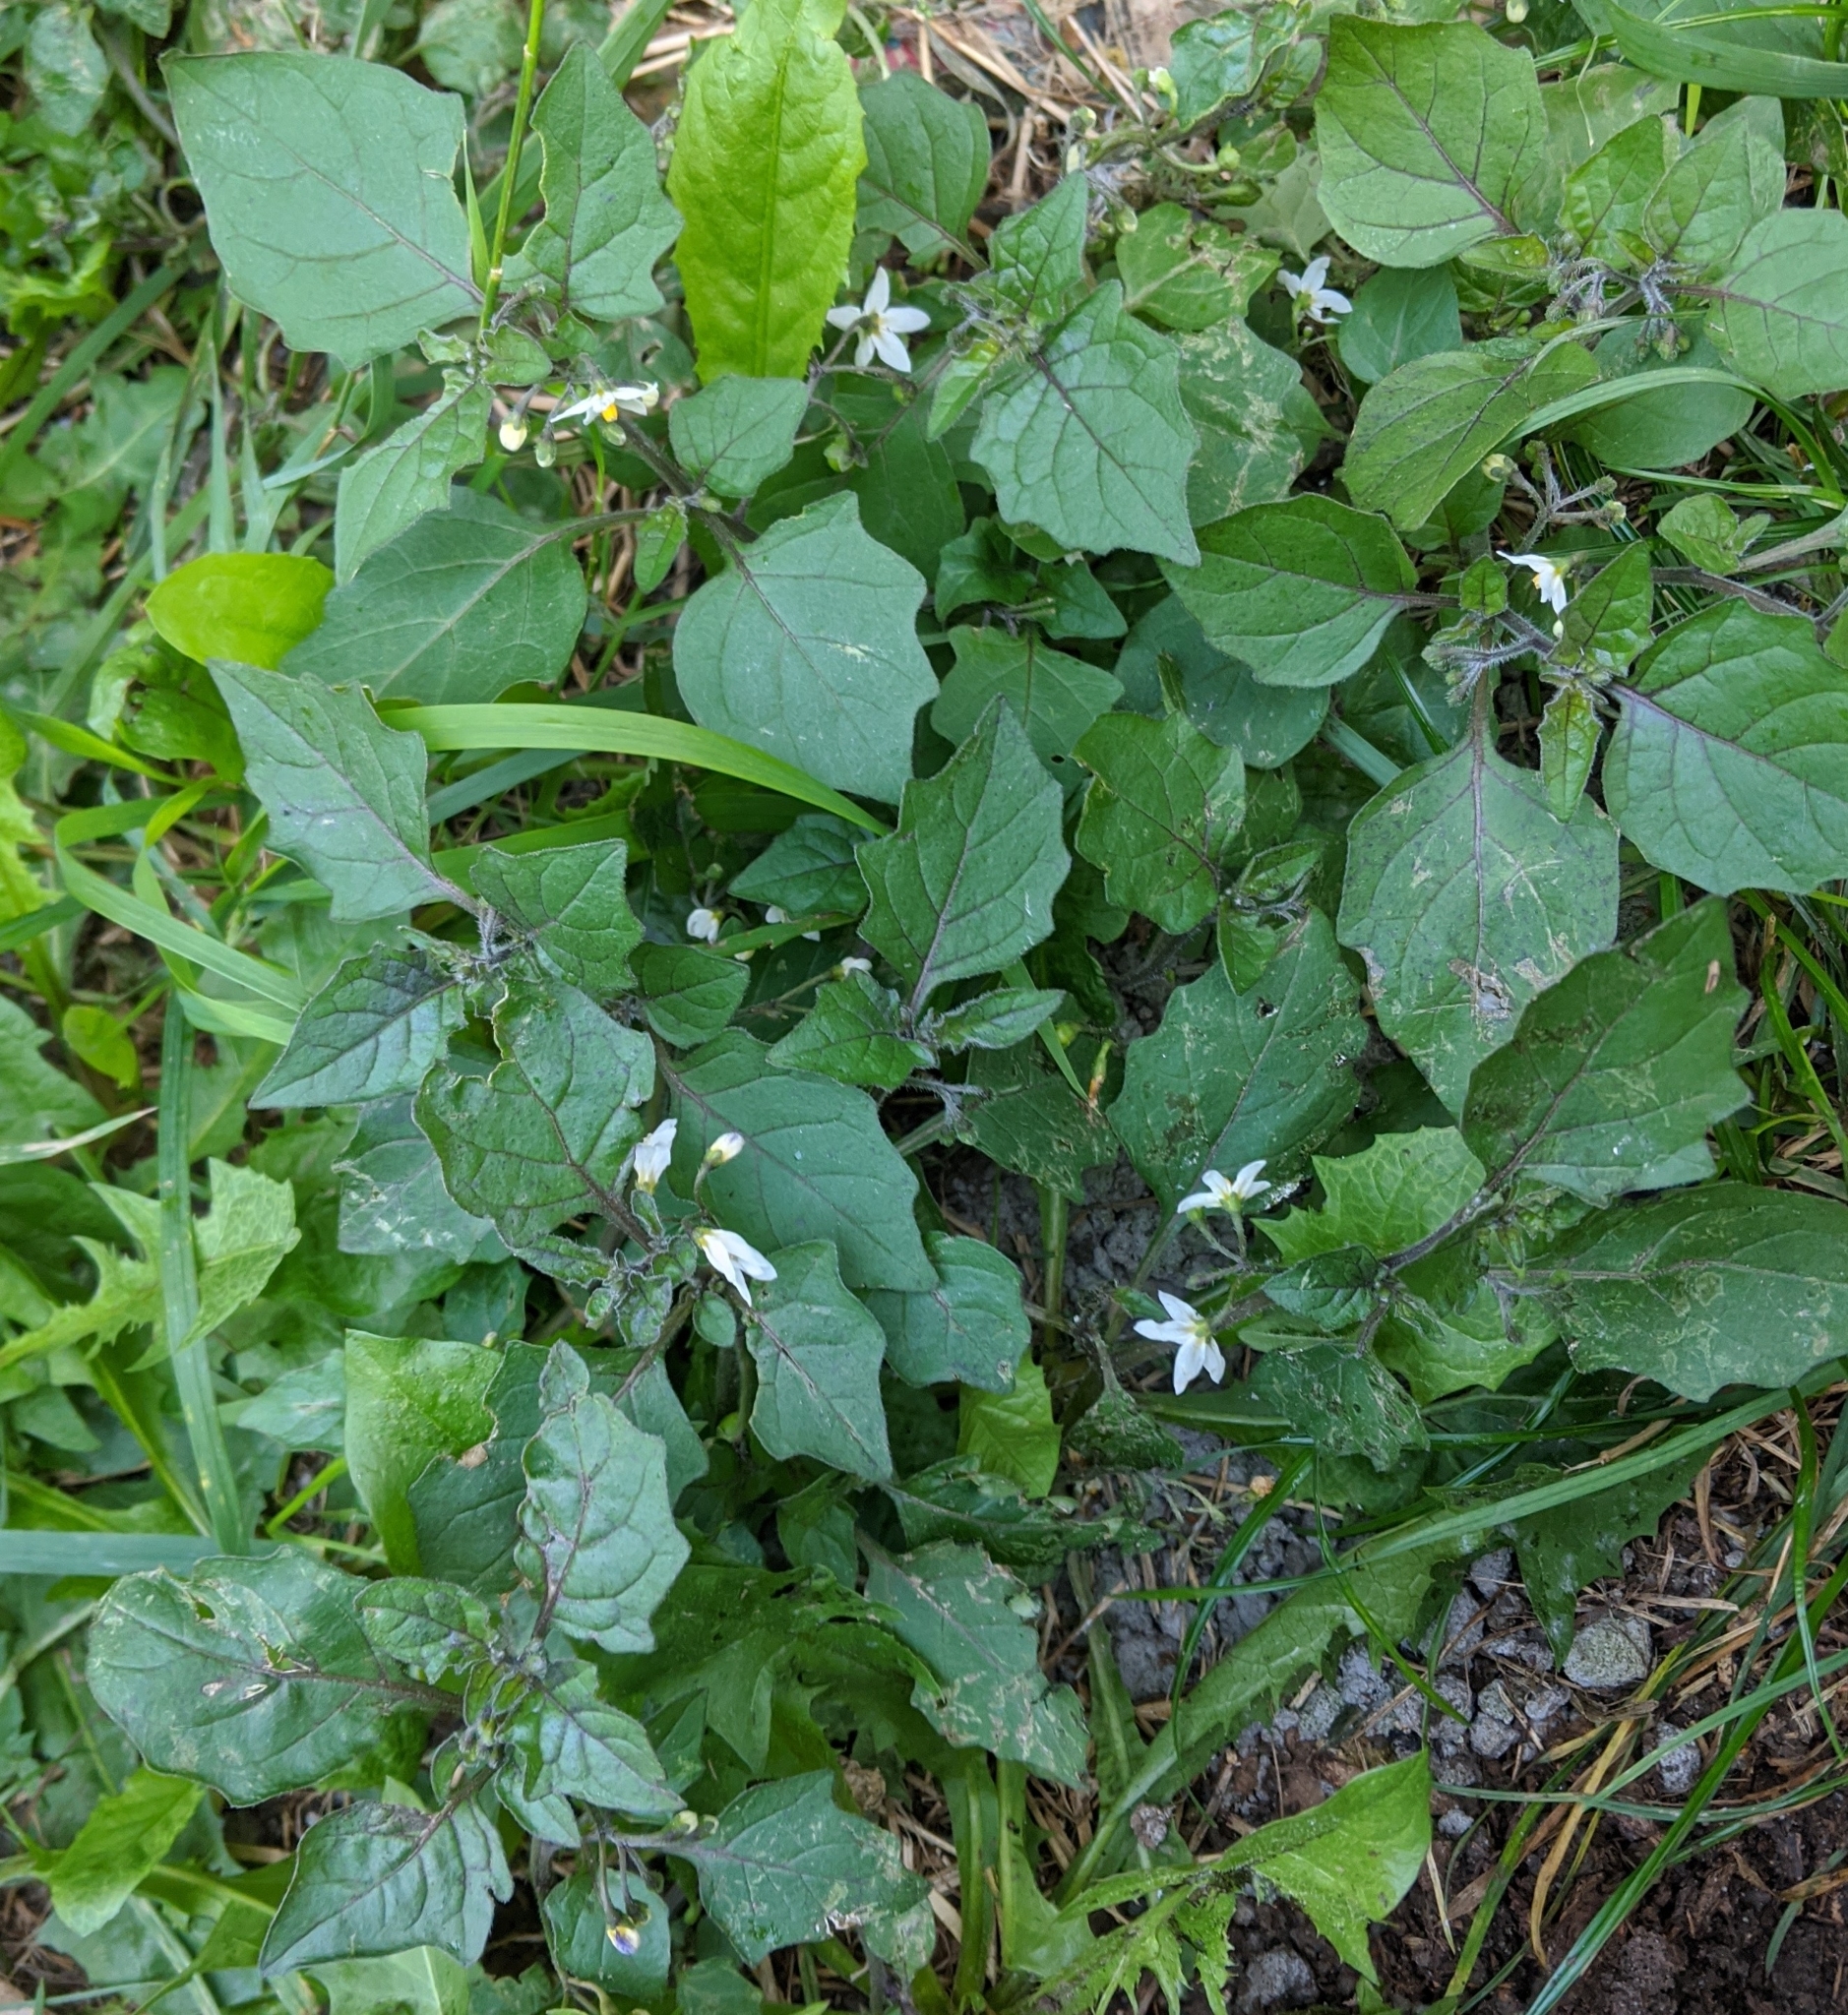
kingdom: Plantae
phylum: Tracheophyta
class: Magnoliopsida
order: Solanales
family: Solanaceae
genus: Solanum
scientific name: Solanum nigrum
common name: Black nightshade
